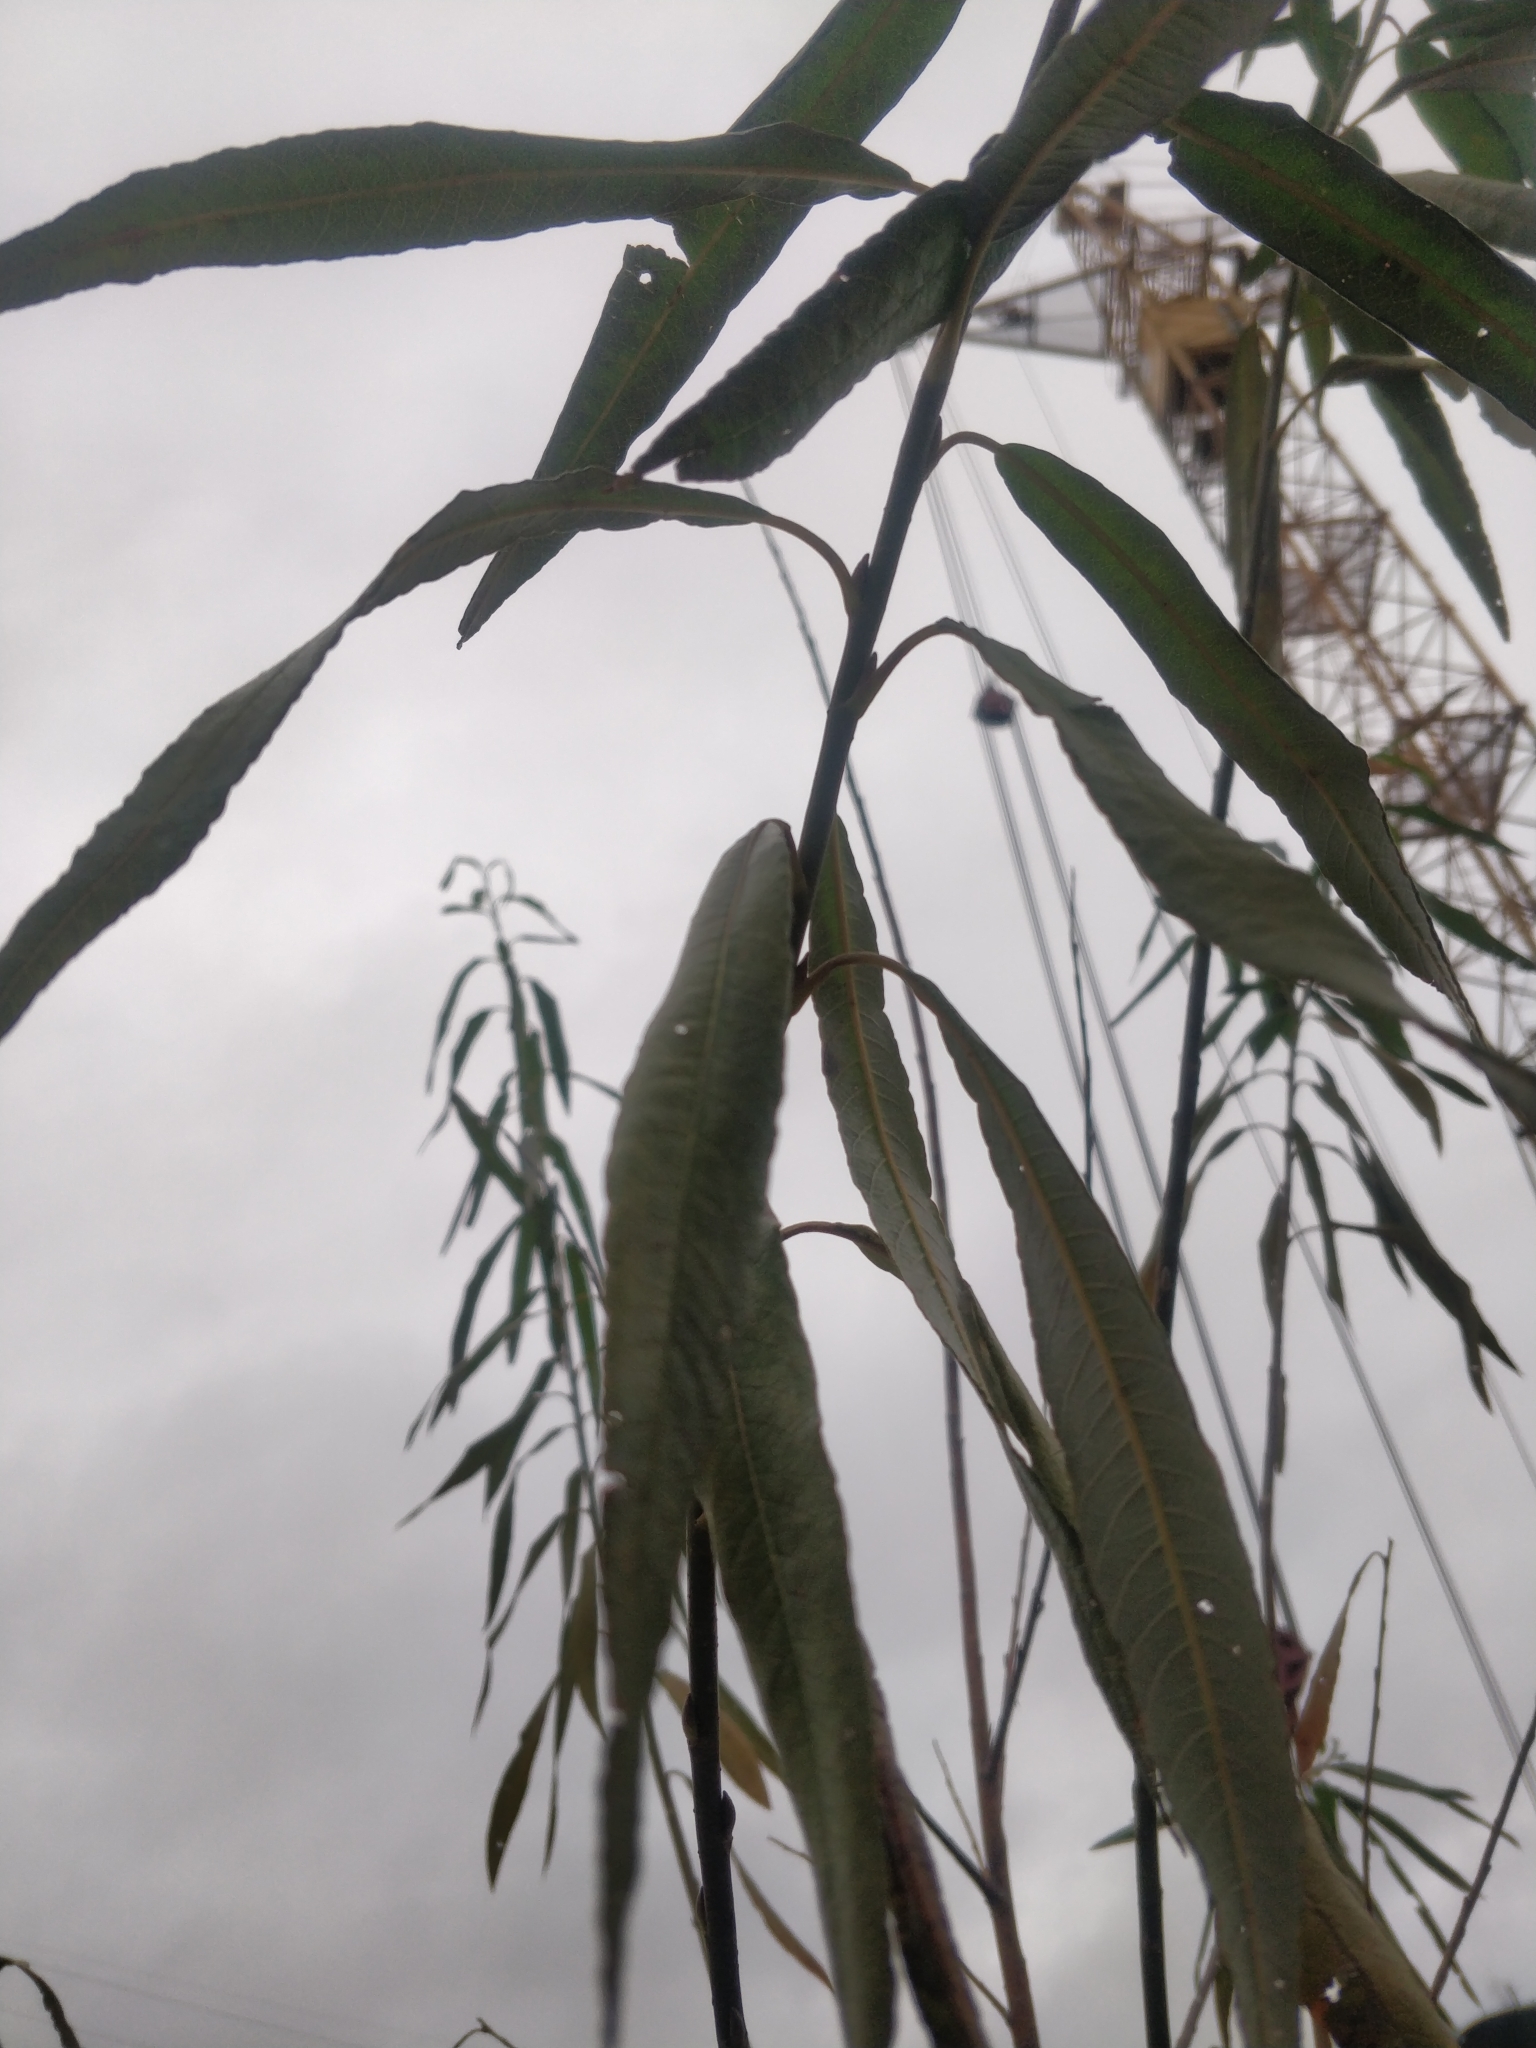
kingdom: Plantae
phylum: Tracheophyta
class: Magnoliopsida
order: Malpighiales
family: Salicaceae
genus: Salix
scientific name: Salix viminalis
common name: Osier
